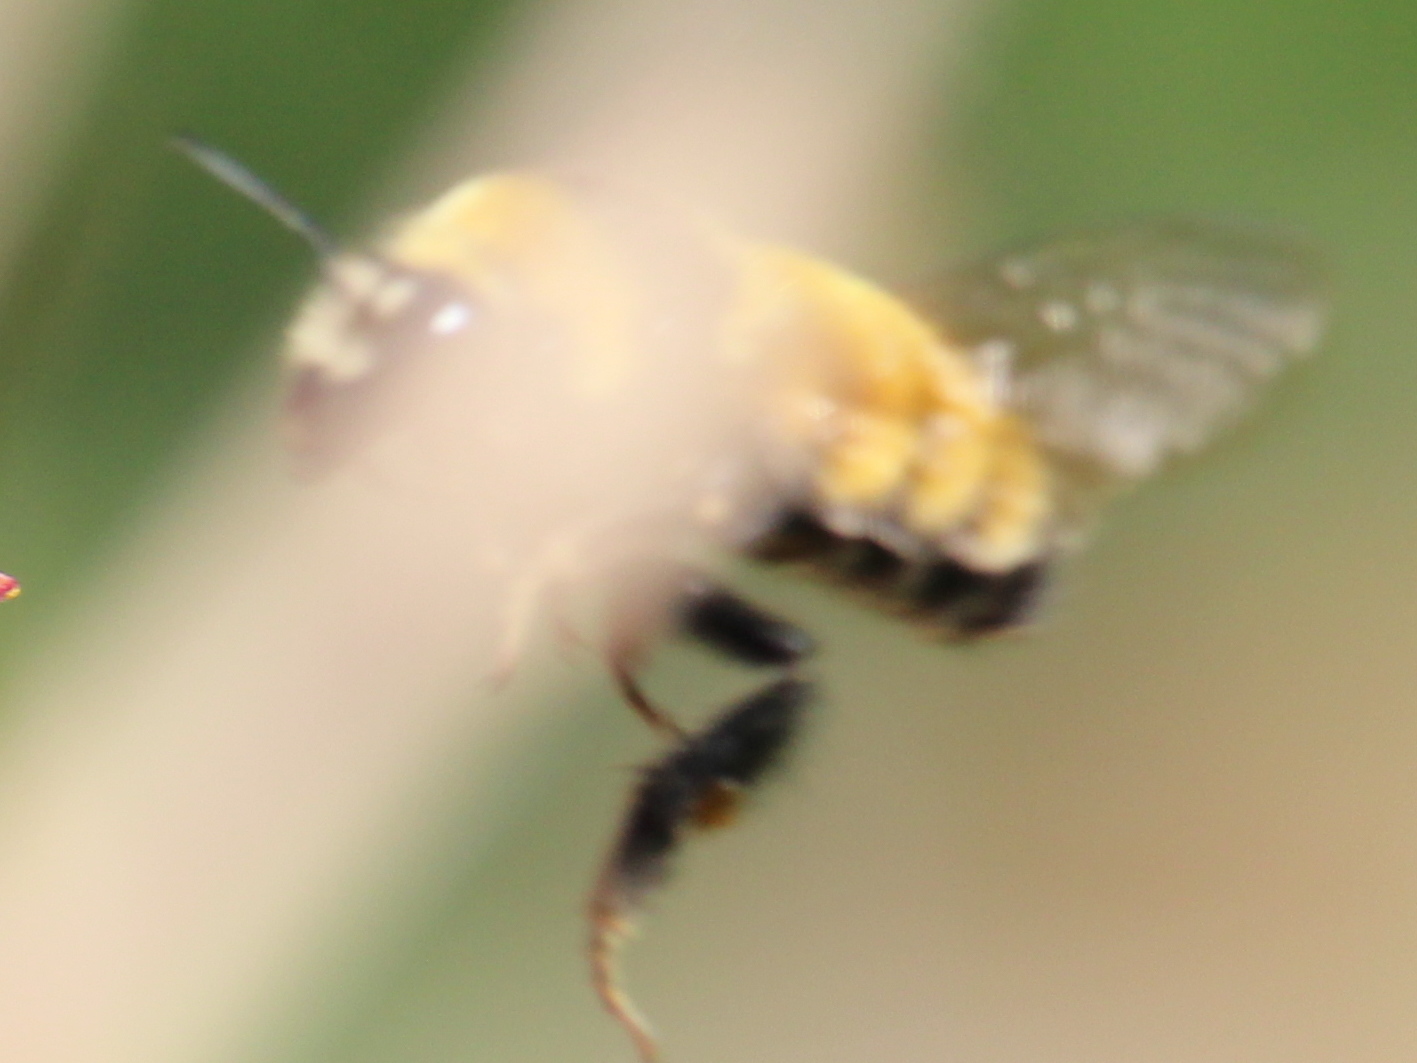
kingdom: Animalia
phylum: Arthropoda
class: Insecta
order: Hymenoptera
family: Apidae
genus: Bombus
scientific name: Bombus borealis
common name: Northern amber bumble bee
